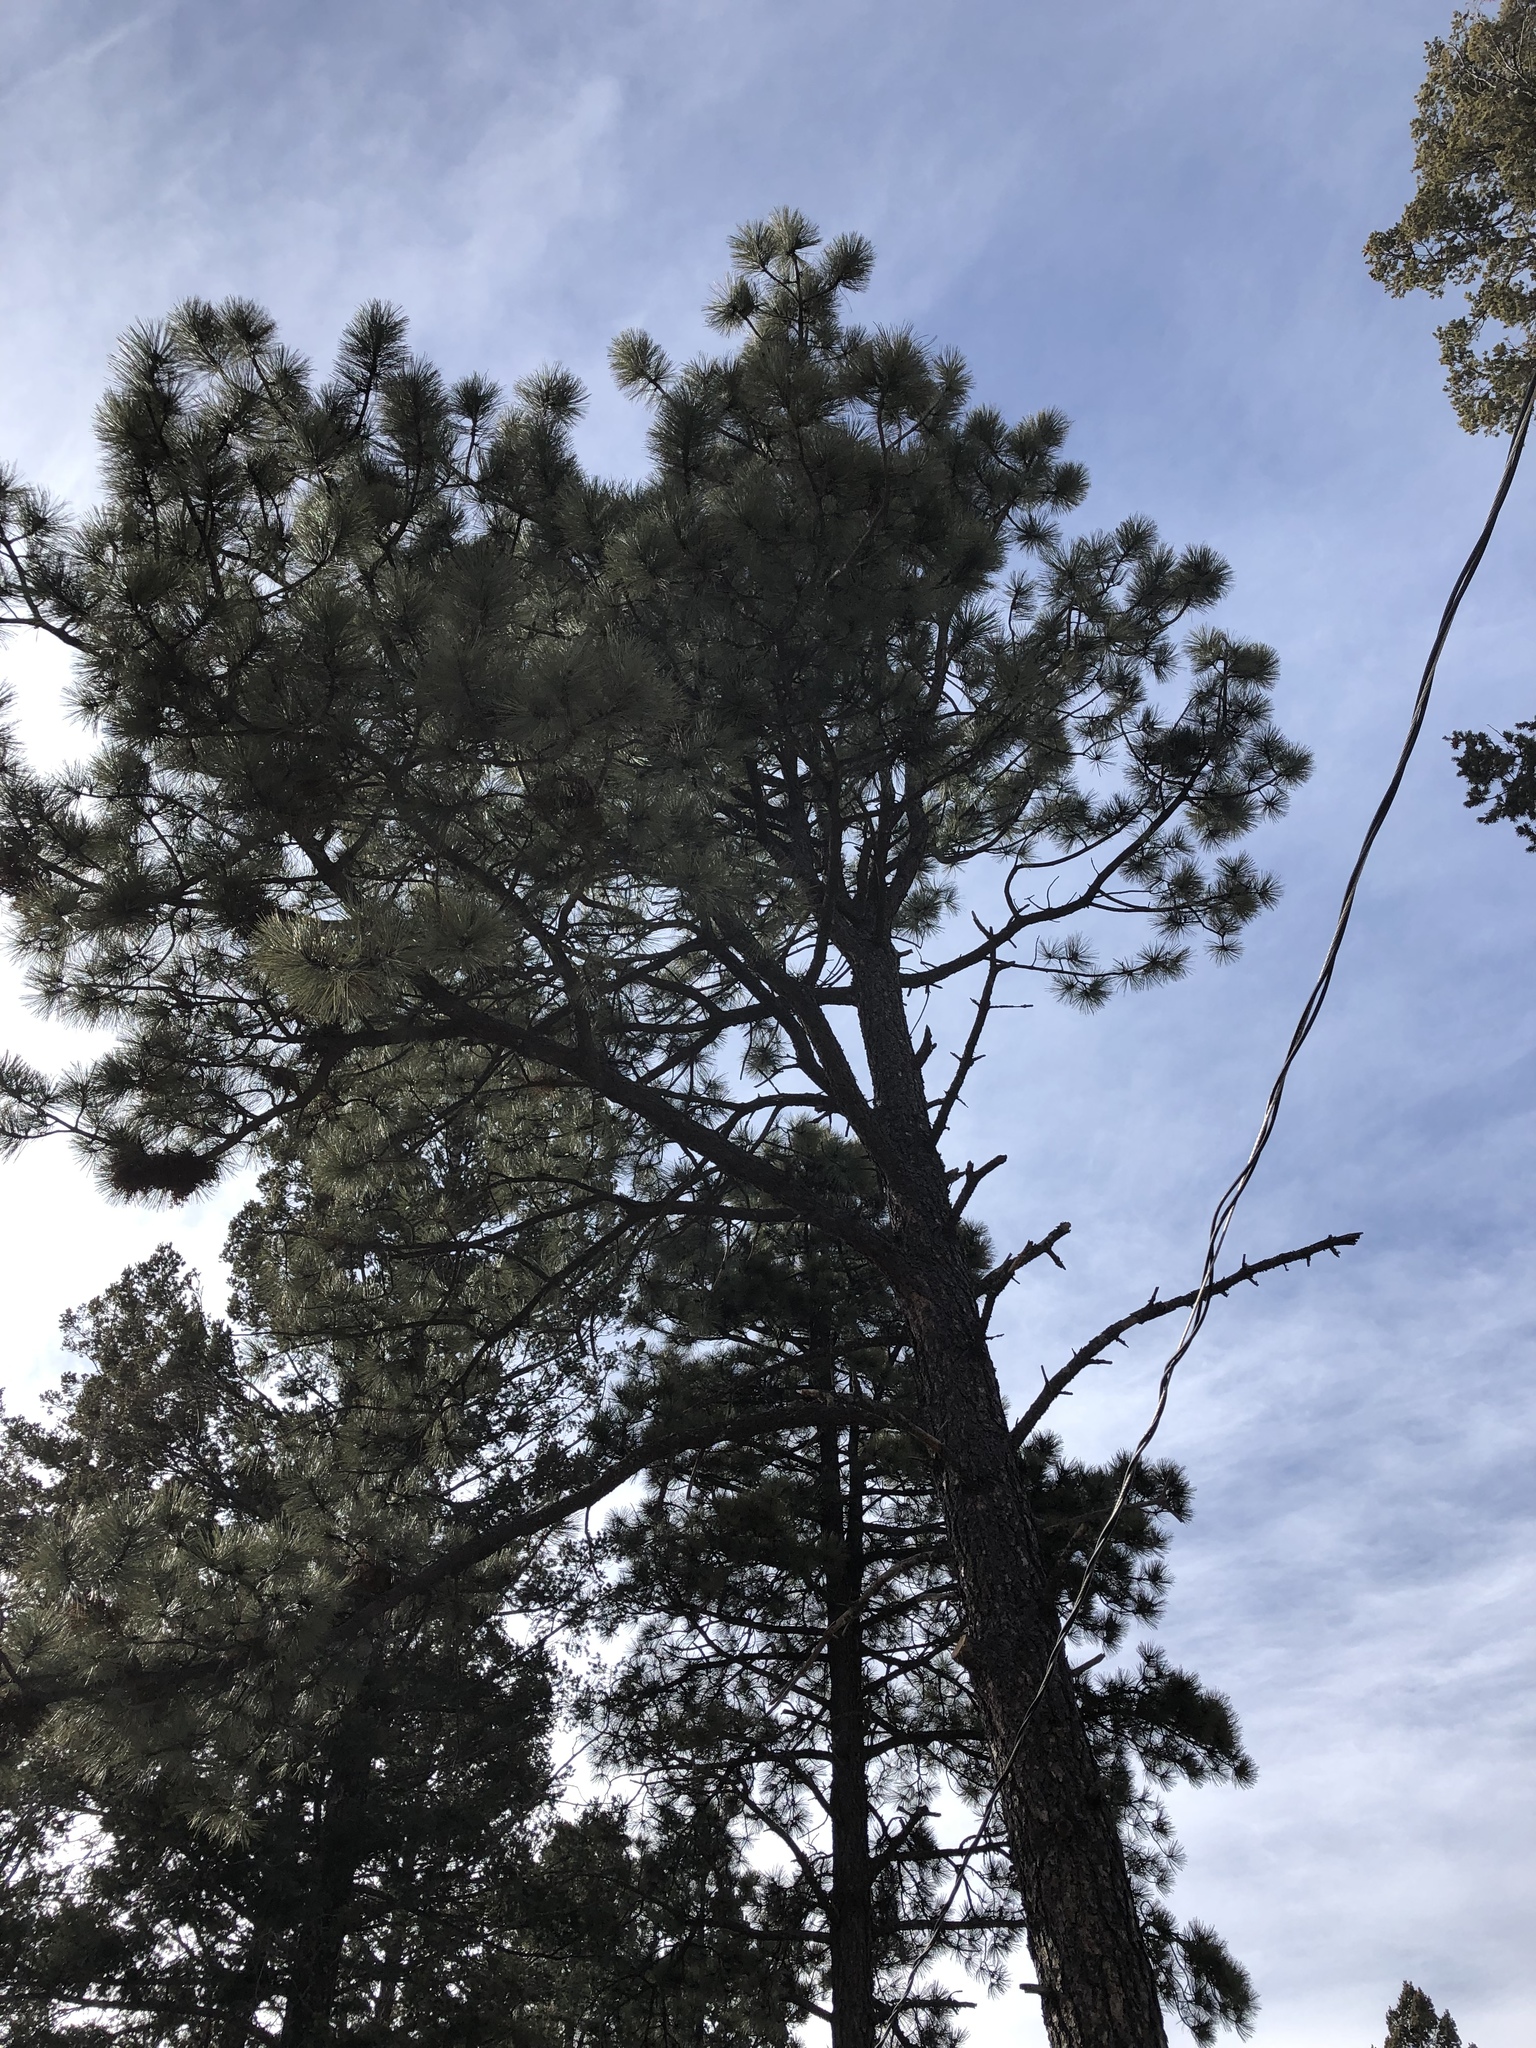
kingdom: Plantae
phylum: Tracheophyta
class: Pinopsida
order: Pinales
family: Pinaceae
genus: Pinus
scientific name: Pinus ponderosa
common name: Western yellow-pine
